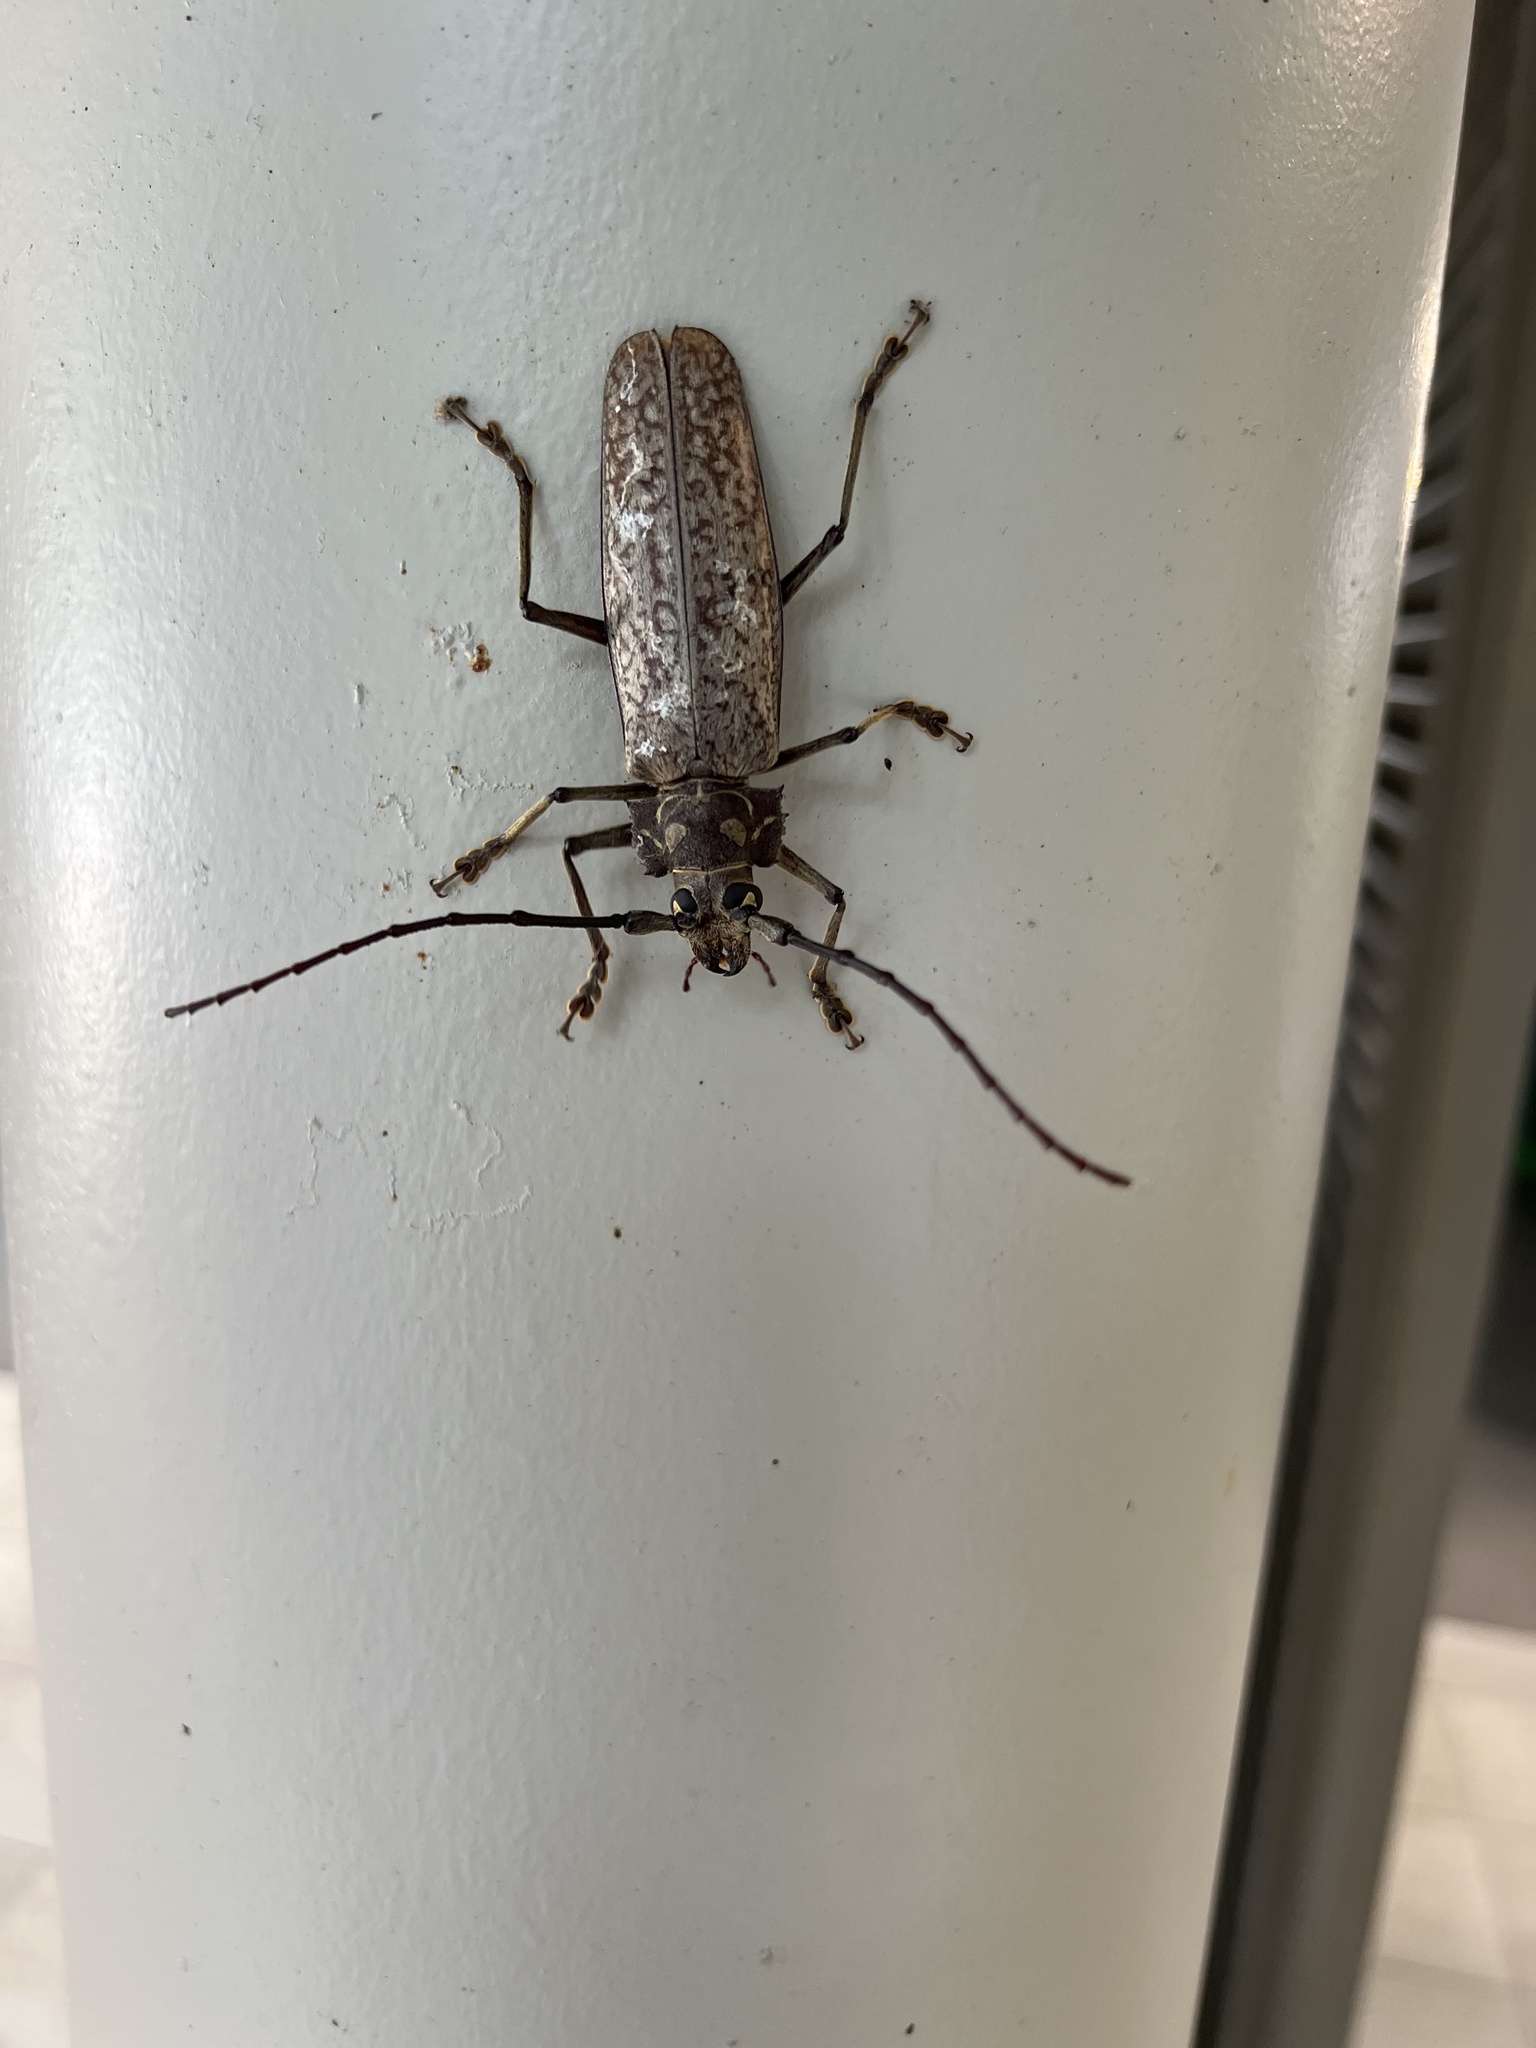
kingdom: Animalia
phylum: Arthropoda
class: Insecta
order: Coleoptera
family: Cerambycidae
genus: Callipogon
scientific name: Callipogon proletarius
